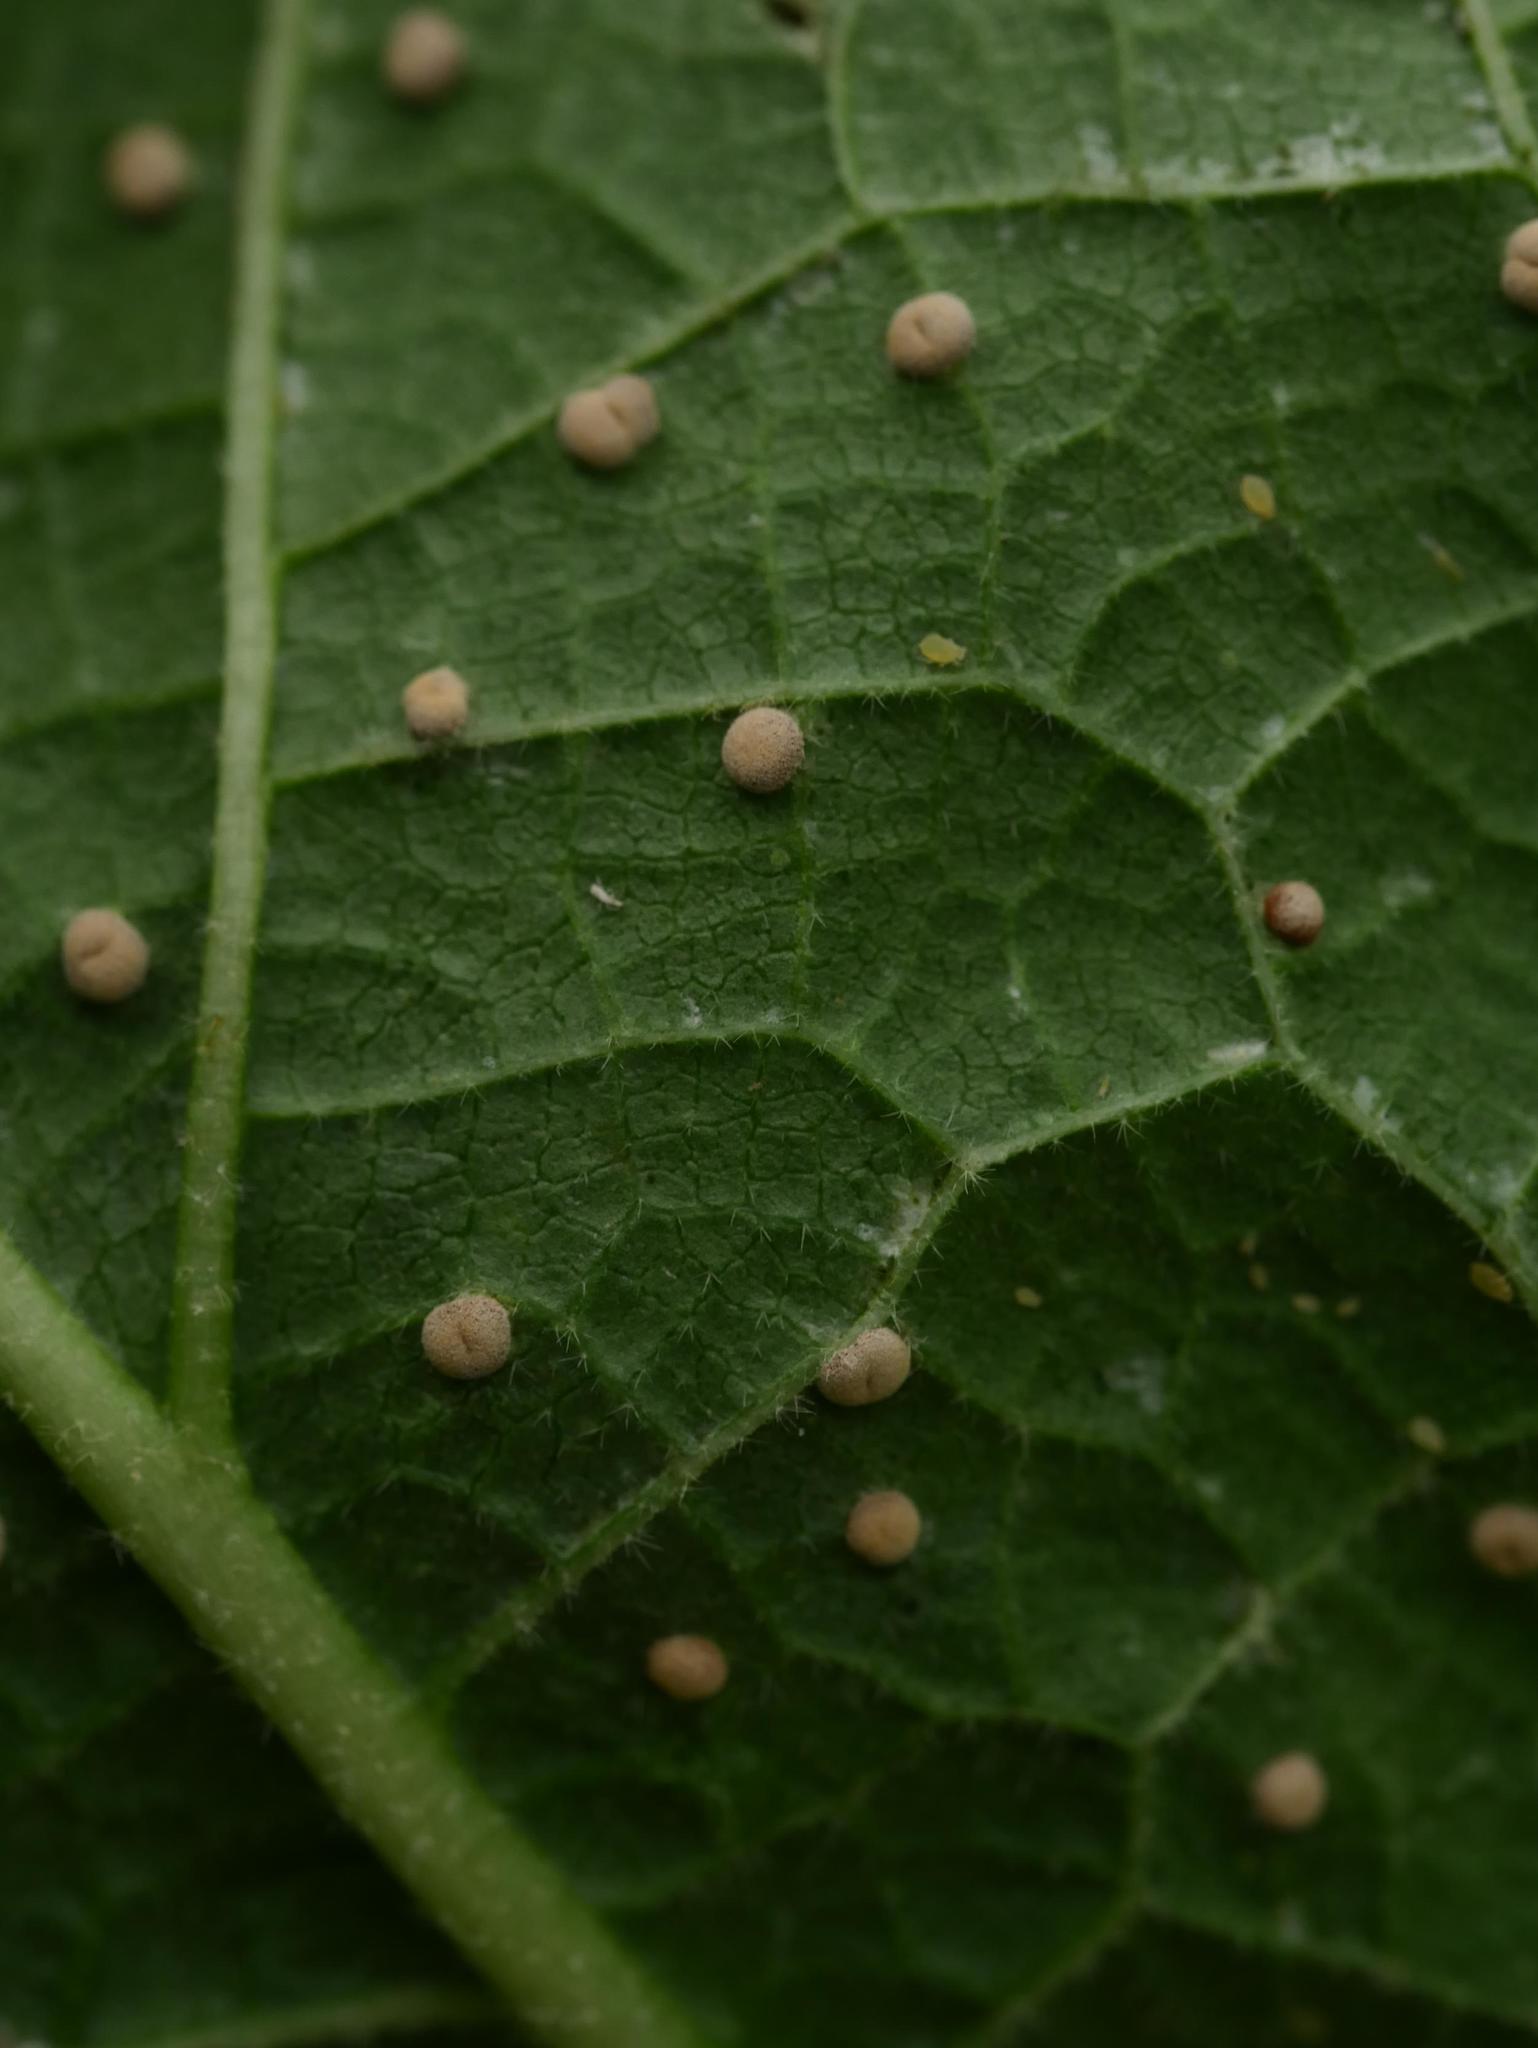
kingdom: Fungi
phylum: Basidiomycota
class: Pucciniomycetes
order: Pucciniales
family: Pucciniaceae
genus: Puccinia
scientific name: Puccinia malvacearum
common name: Hollyhock rust
